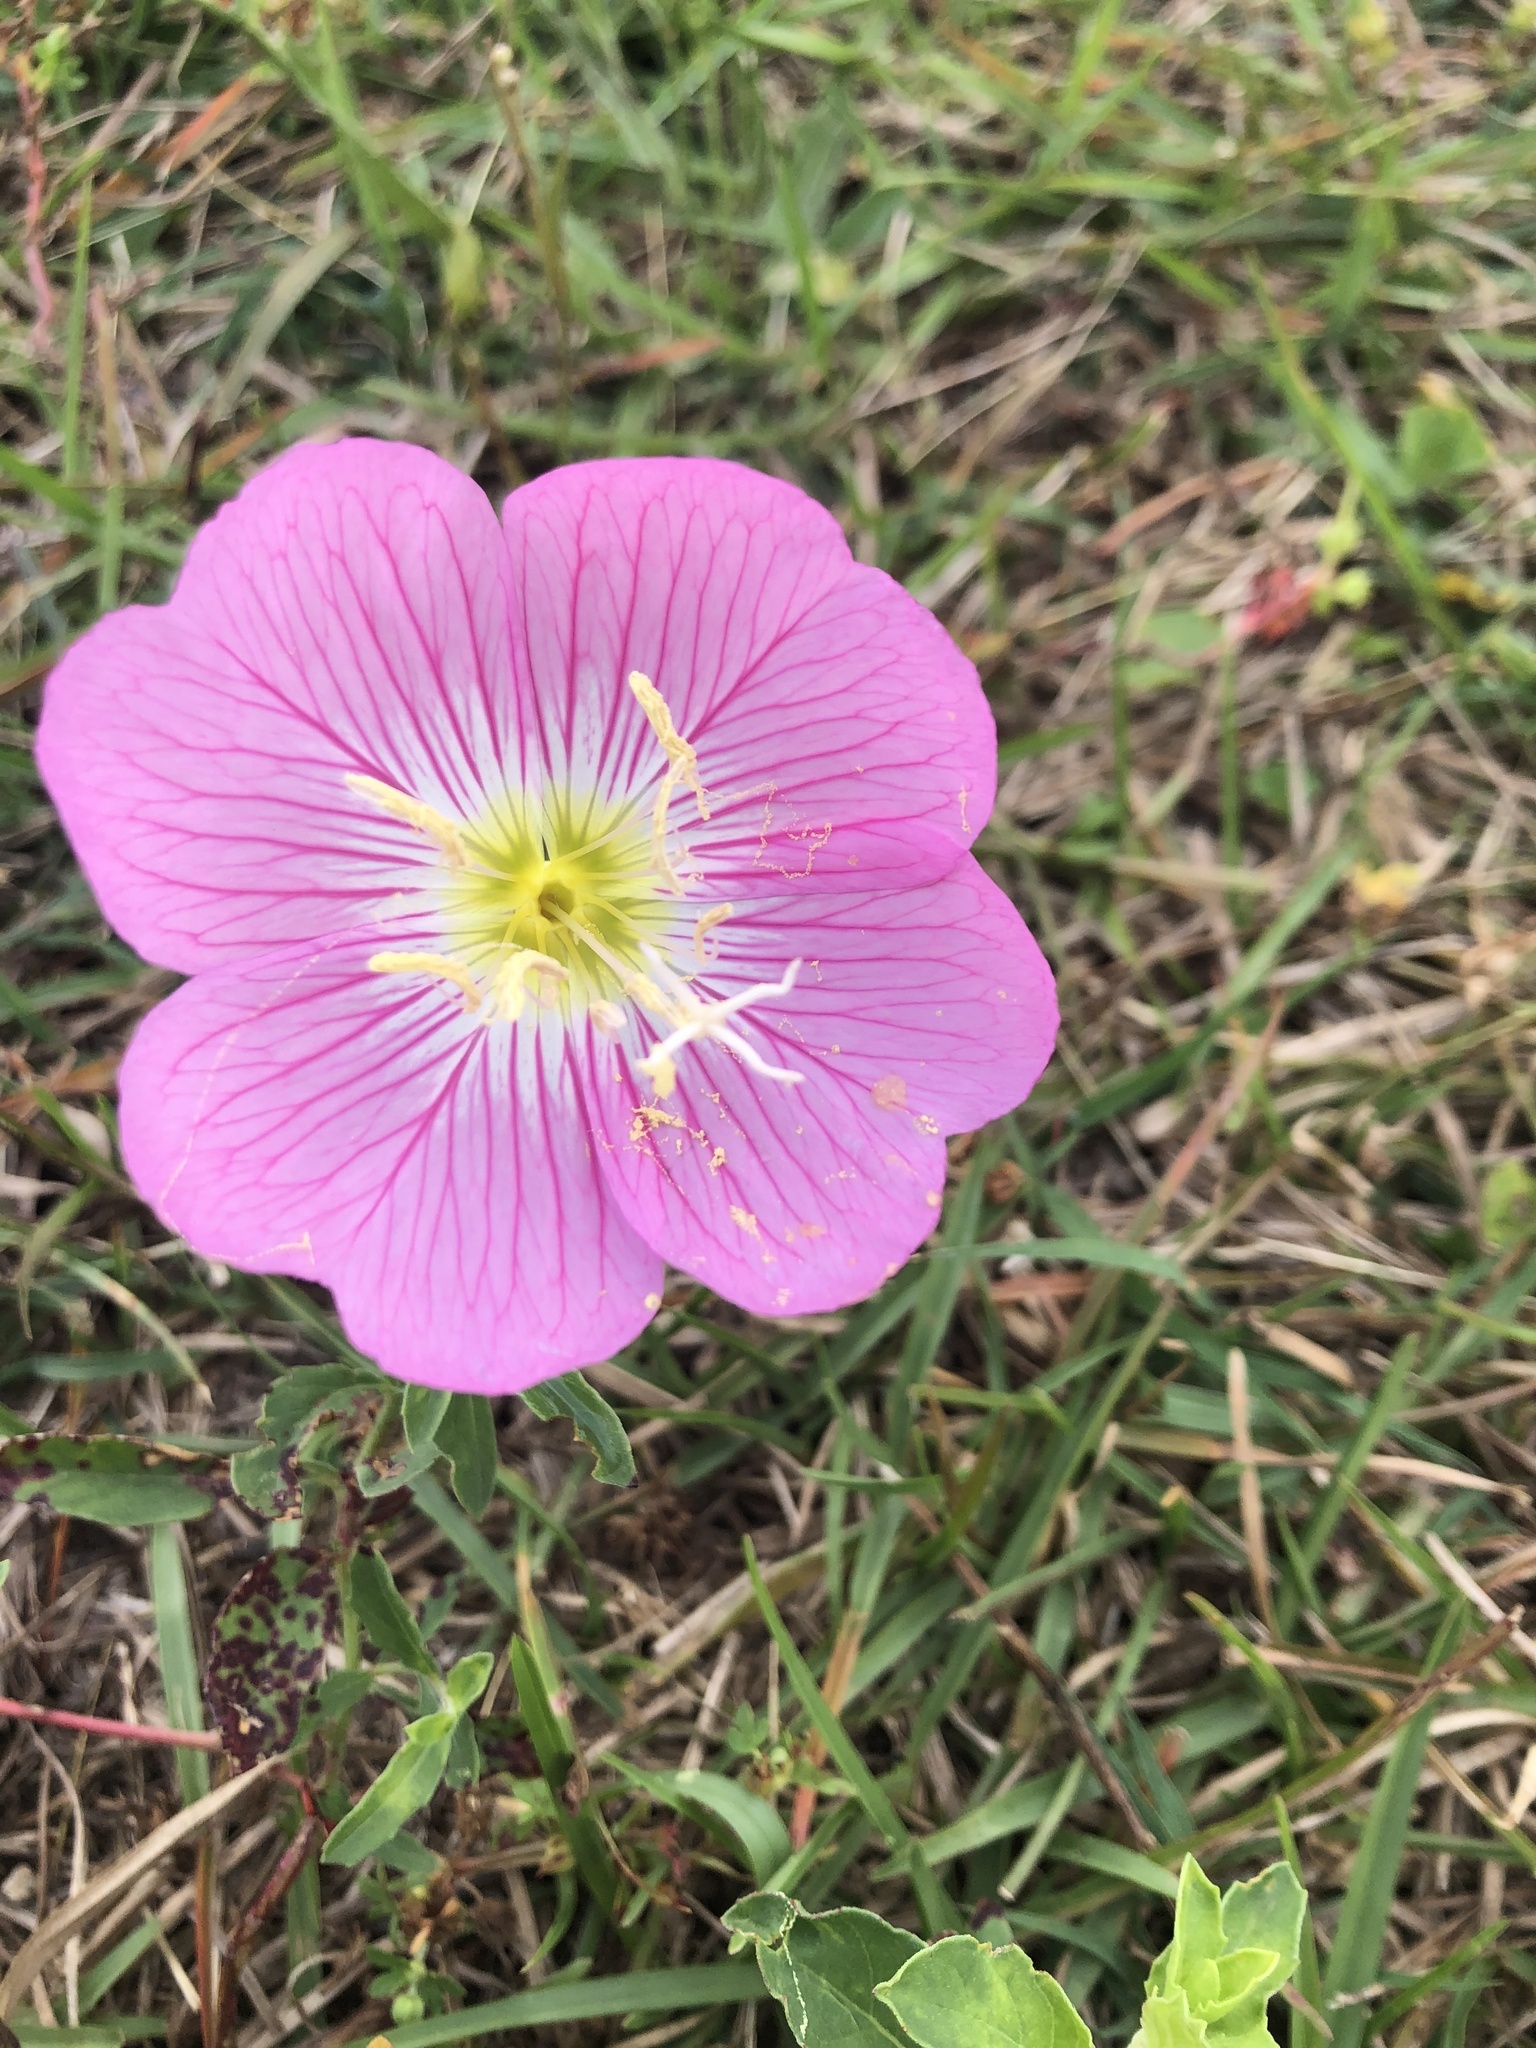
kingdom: Plantae
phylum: Tracheophyta
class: Magnoliopsida
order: Myrtales
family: Onagraceae
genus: Oenothera
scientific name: Oenothera speciosa
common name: White evening-primrose
